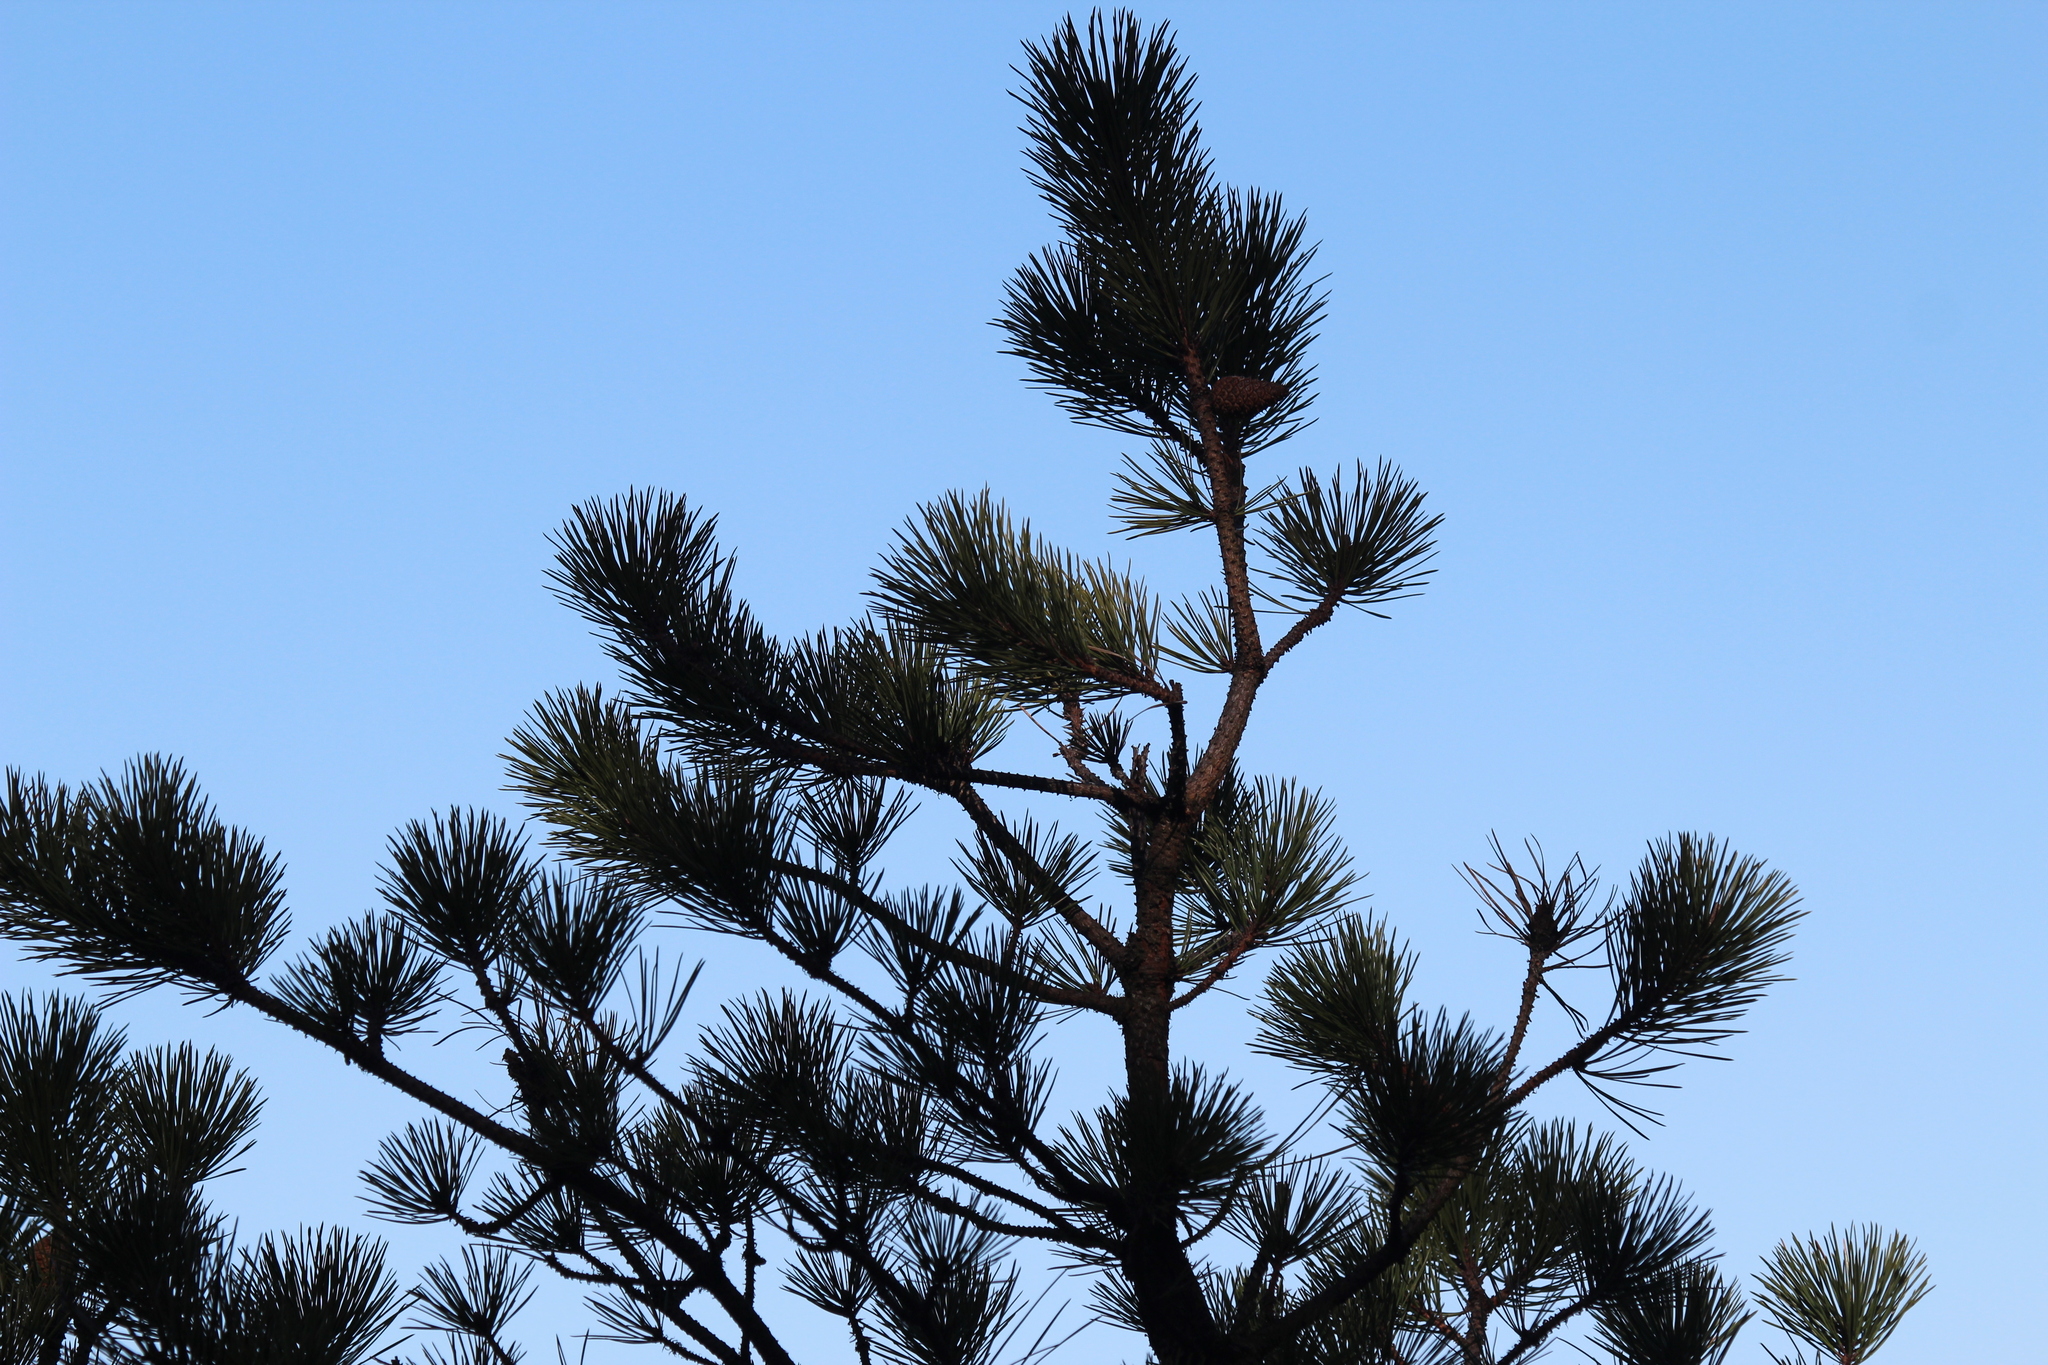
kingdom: Plantae
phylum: Tracheophyta
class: Pinopsida
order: Pinales
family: Pinaceae
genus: Pinus
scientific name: Pinus rigida
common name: Pitch pine
